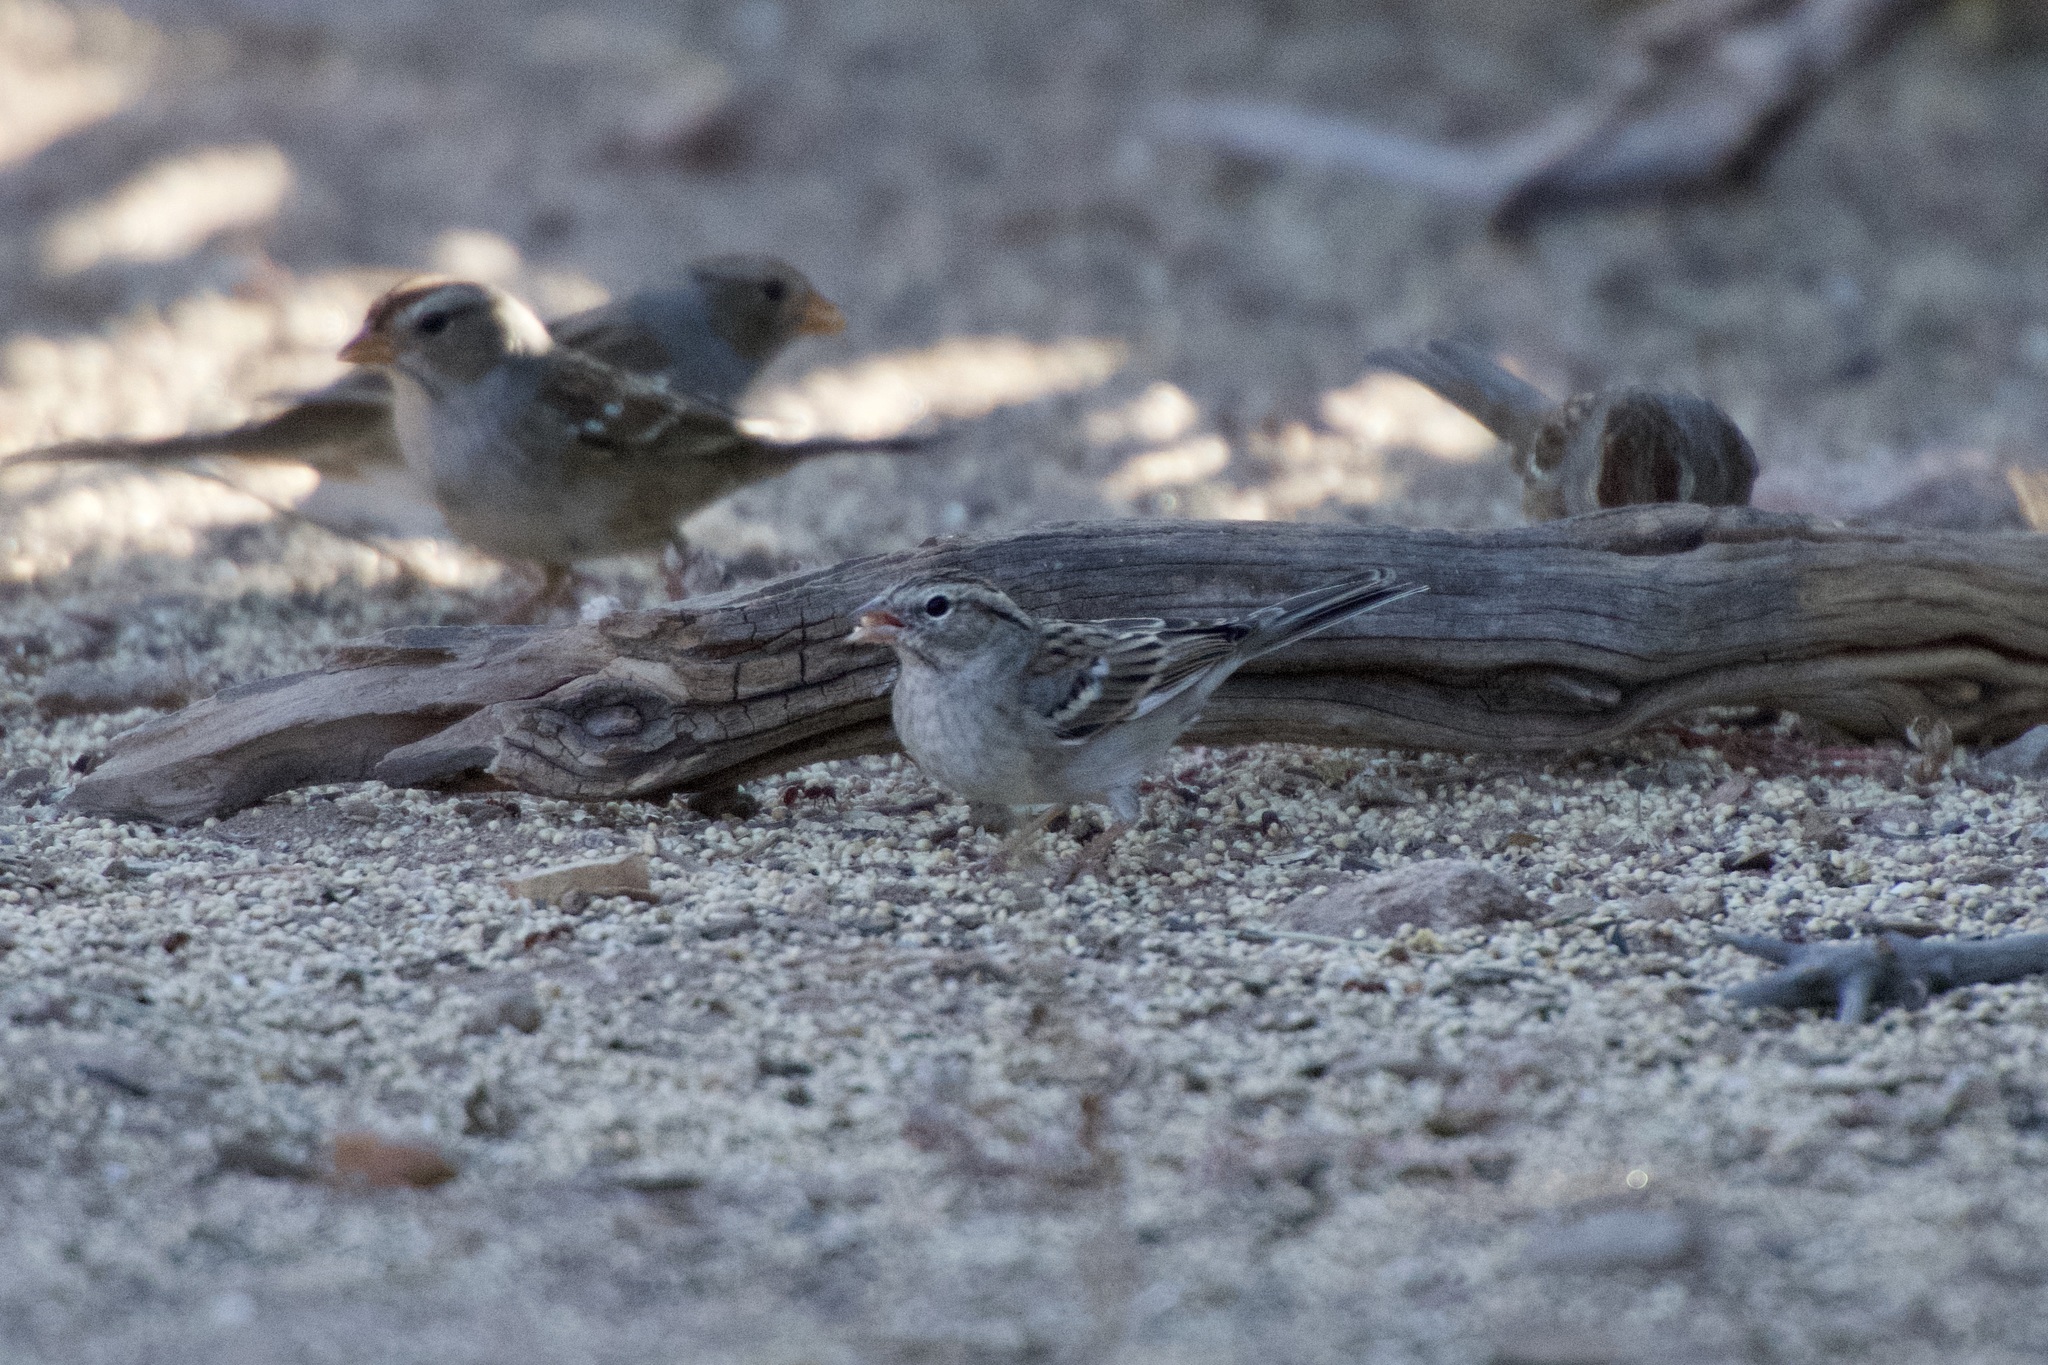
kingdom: Animalia
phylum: Chordata
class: Aves
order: Passeriformes
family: Passerellidae
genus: Spizella
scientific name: Spizella passerina
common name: Chipping sparrow
